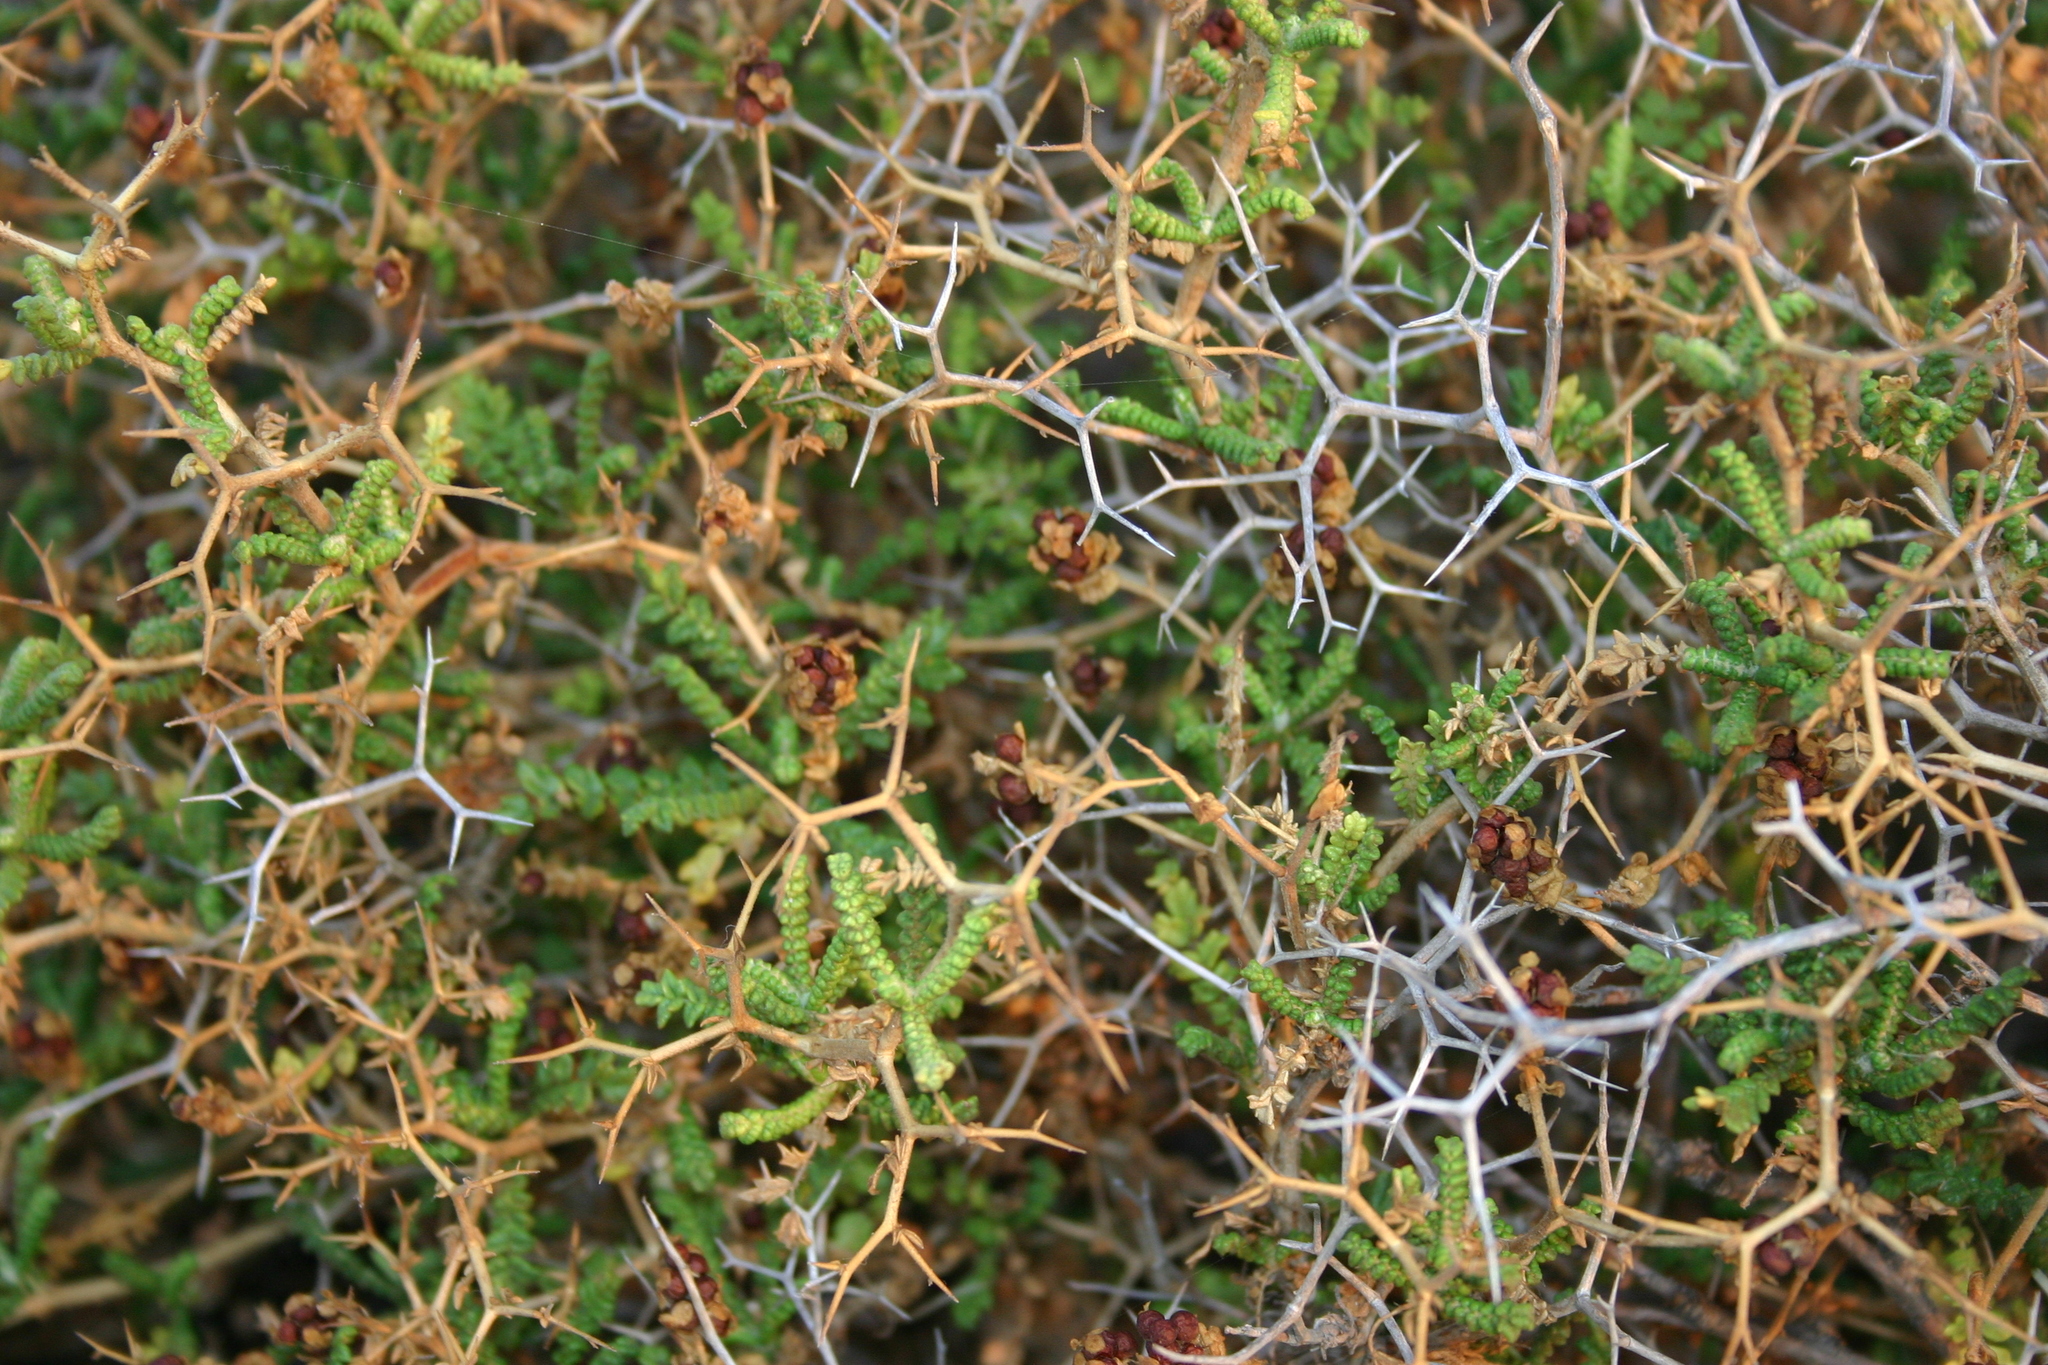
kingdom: Plantae
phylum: Tracheophyta
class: Magnoliopsida
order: Rosales
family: Rosaceae
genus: Sarcopoterium
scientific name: Sarcopoterium spinosum
